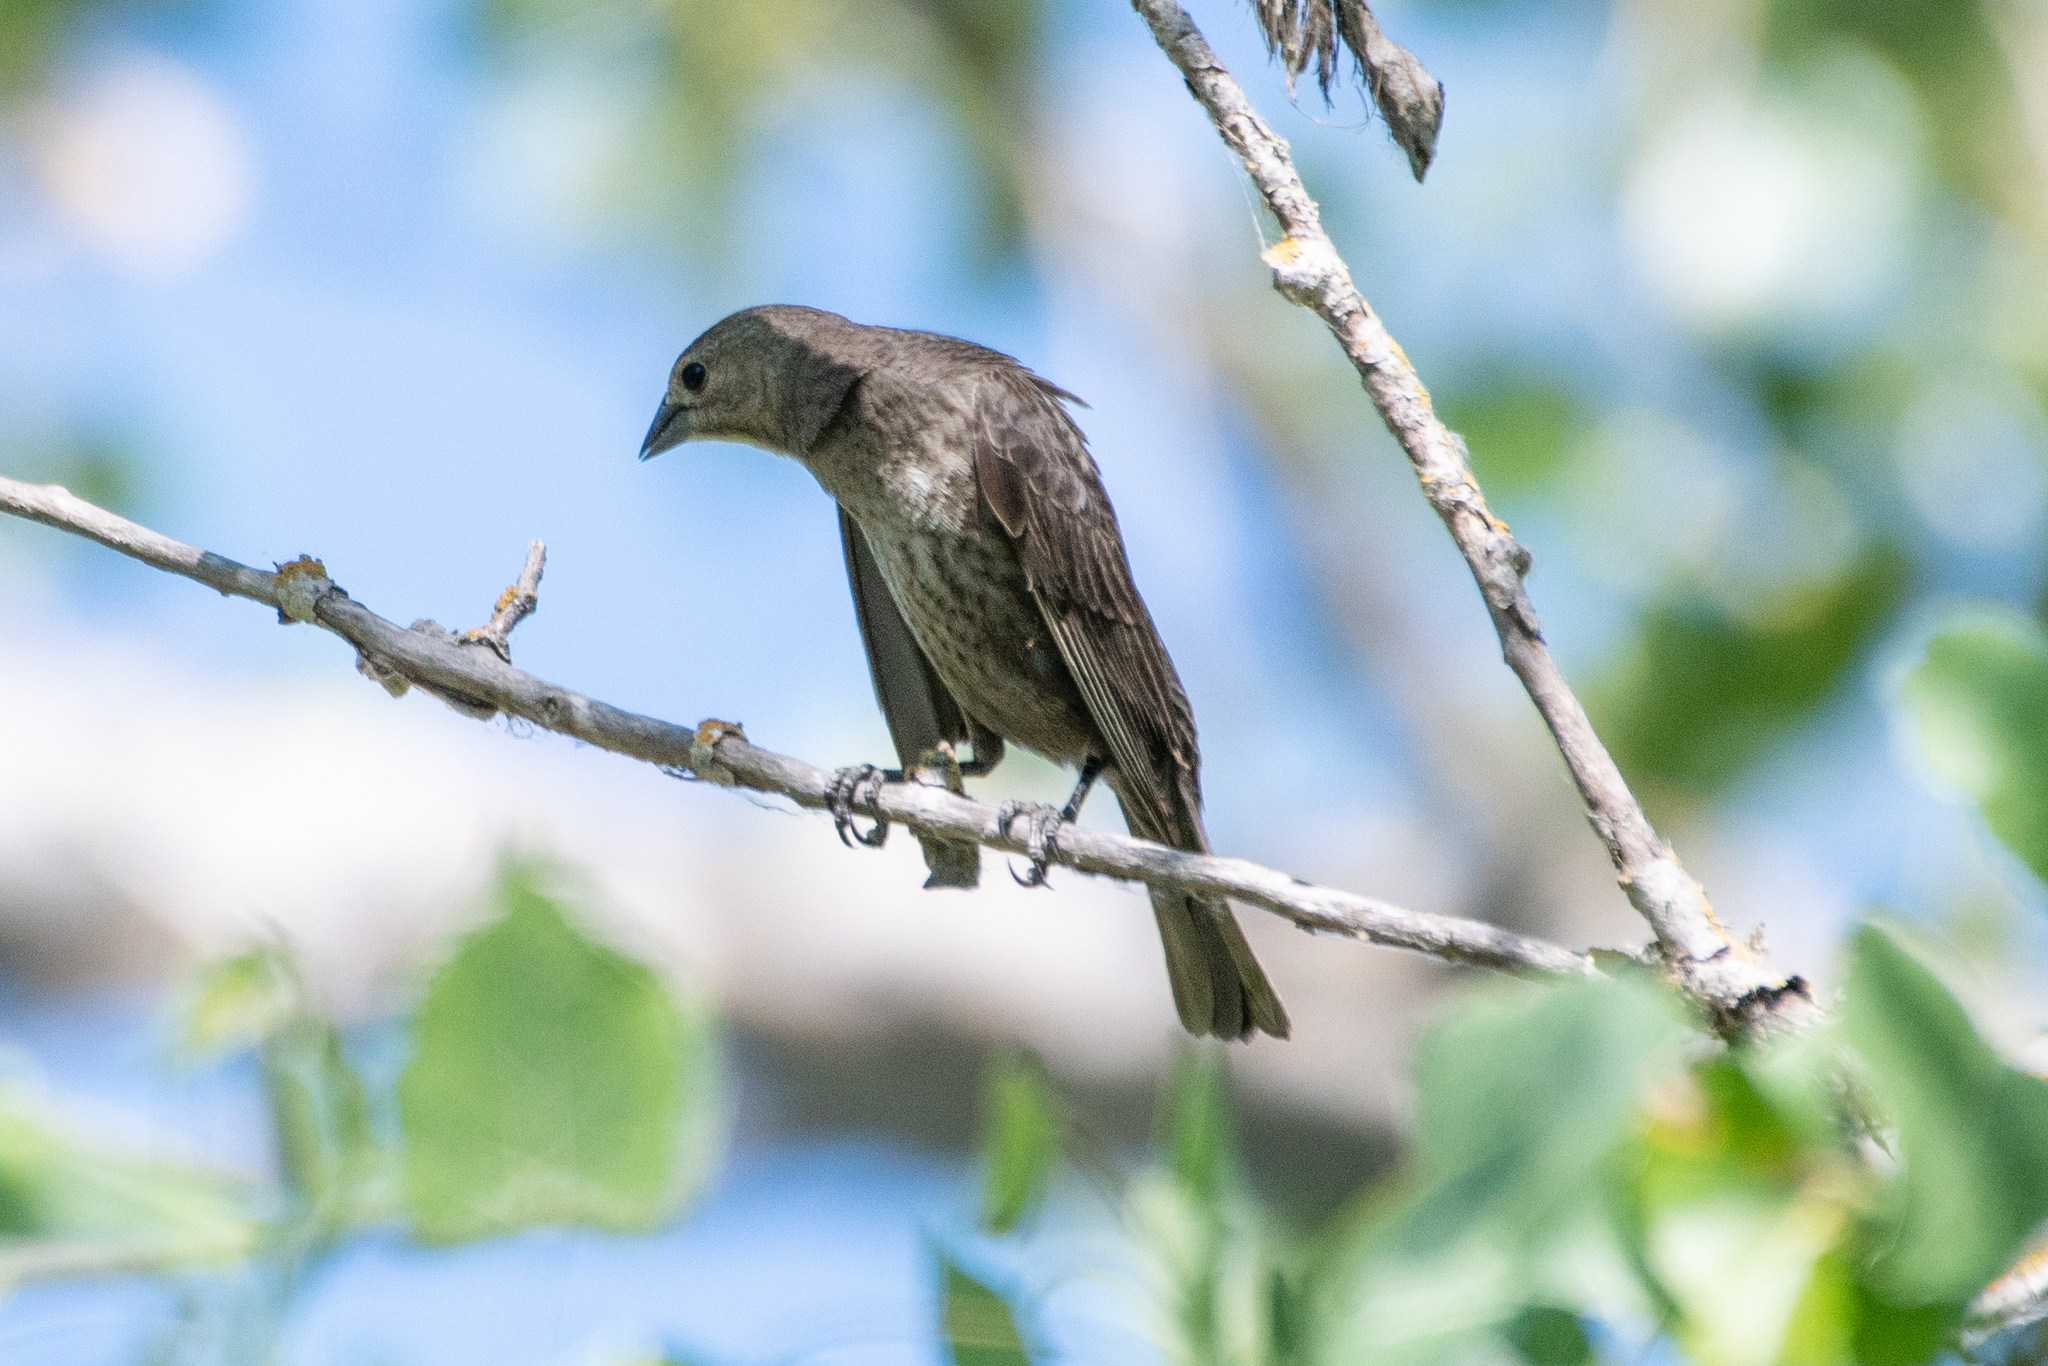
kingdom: Animalia
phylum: Chordata
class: Aves
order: Passeriformes
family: Icteridae
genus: Molothrus
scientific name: Molothrus ater
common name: Brown-headed cowbird
